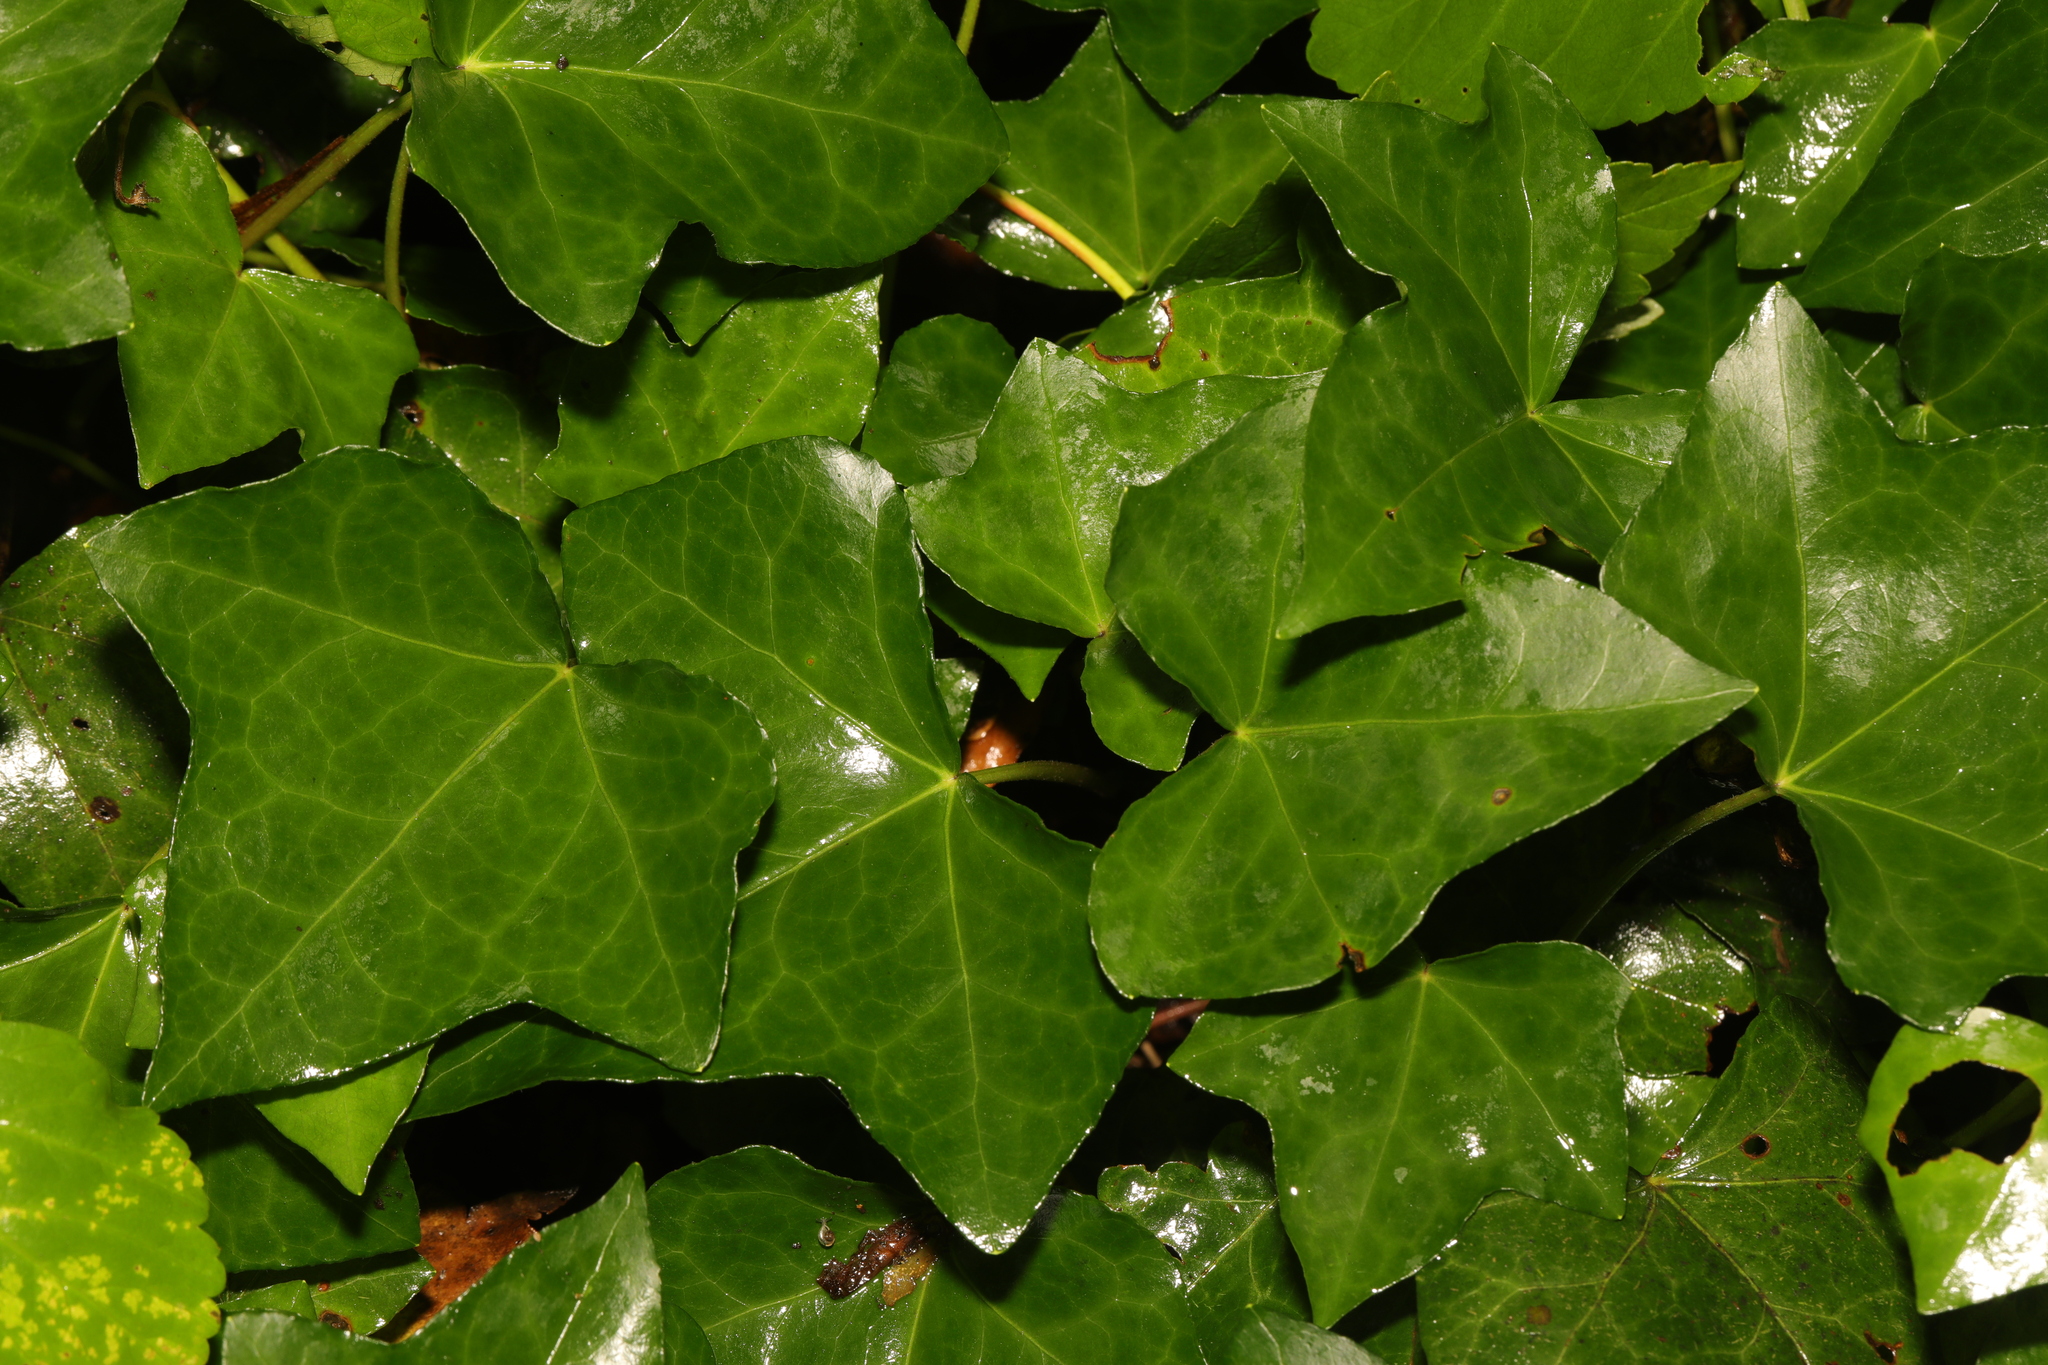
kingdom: Plantae
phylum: Tracheophyta
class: Magnoliopsida
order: Apiales
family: Araliaceae
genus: Hedera
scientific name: Hedera helix
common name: Ivy
